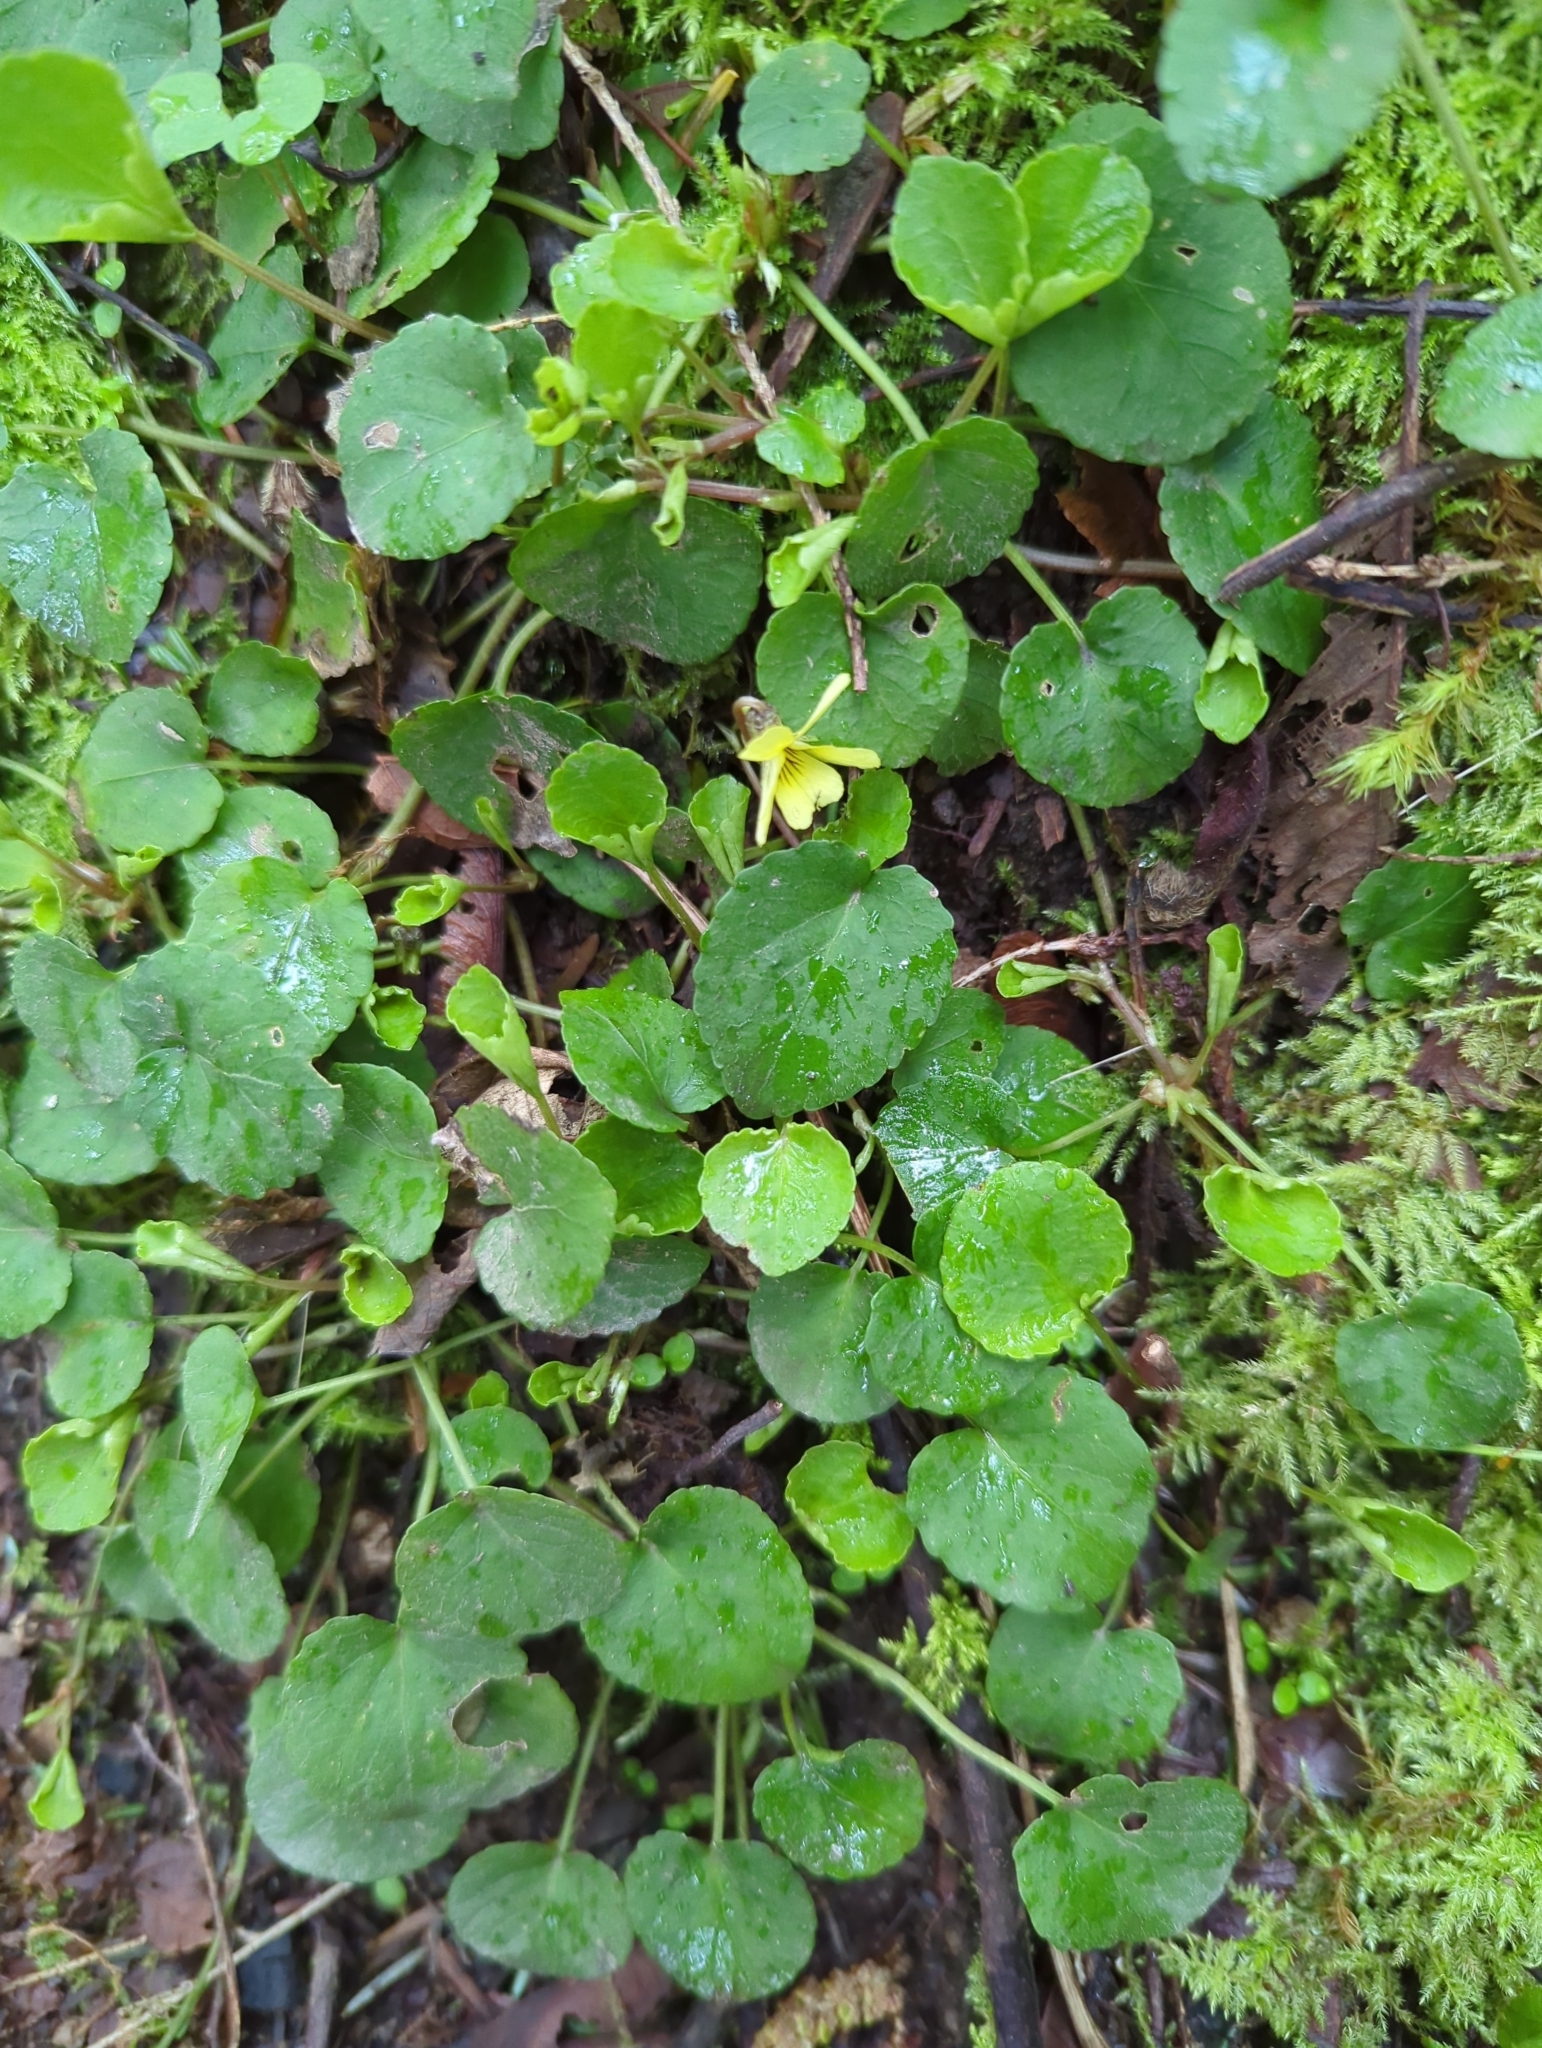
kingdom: Plantae
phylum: Tracheophyta
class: Magnoliopsida
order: Malpighiales
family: Violaceae
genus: Viola
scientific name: Viola sempervirens
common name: Evergreen violet
